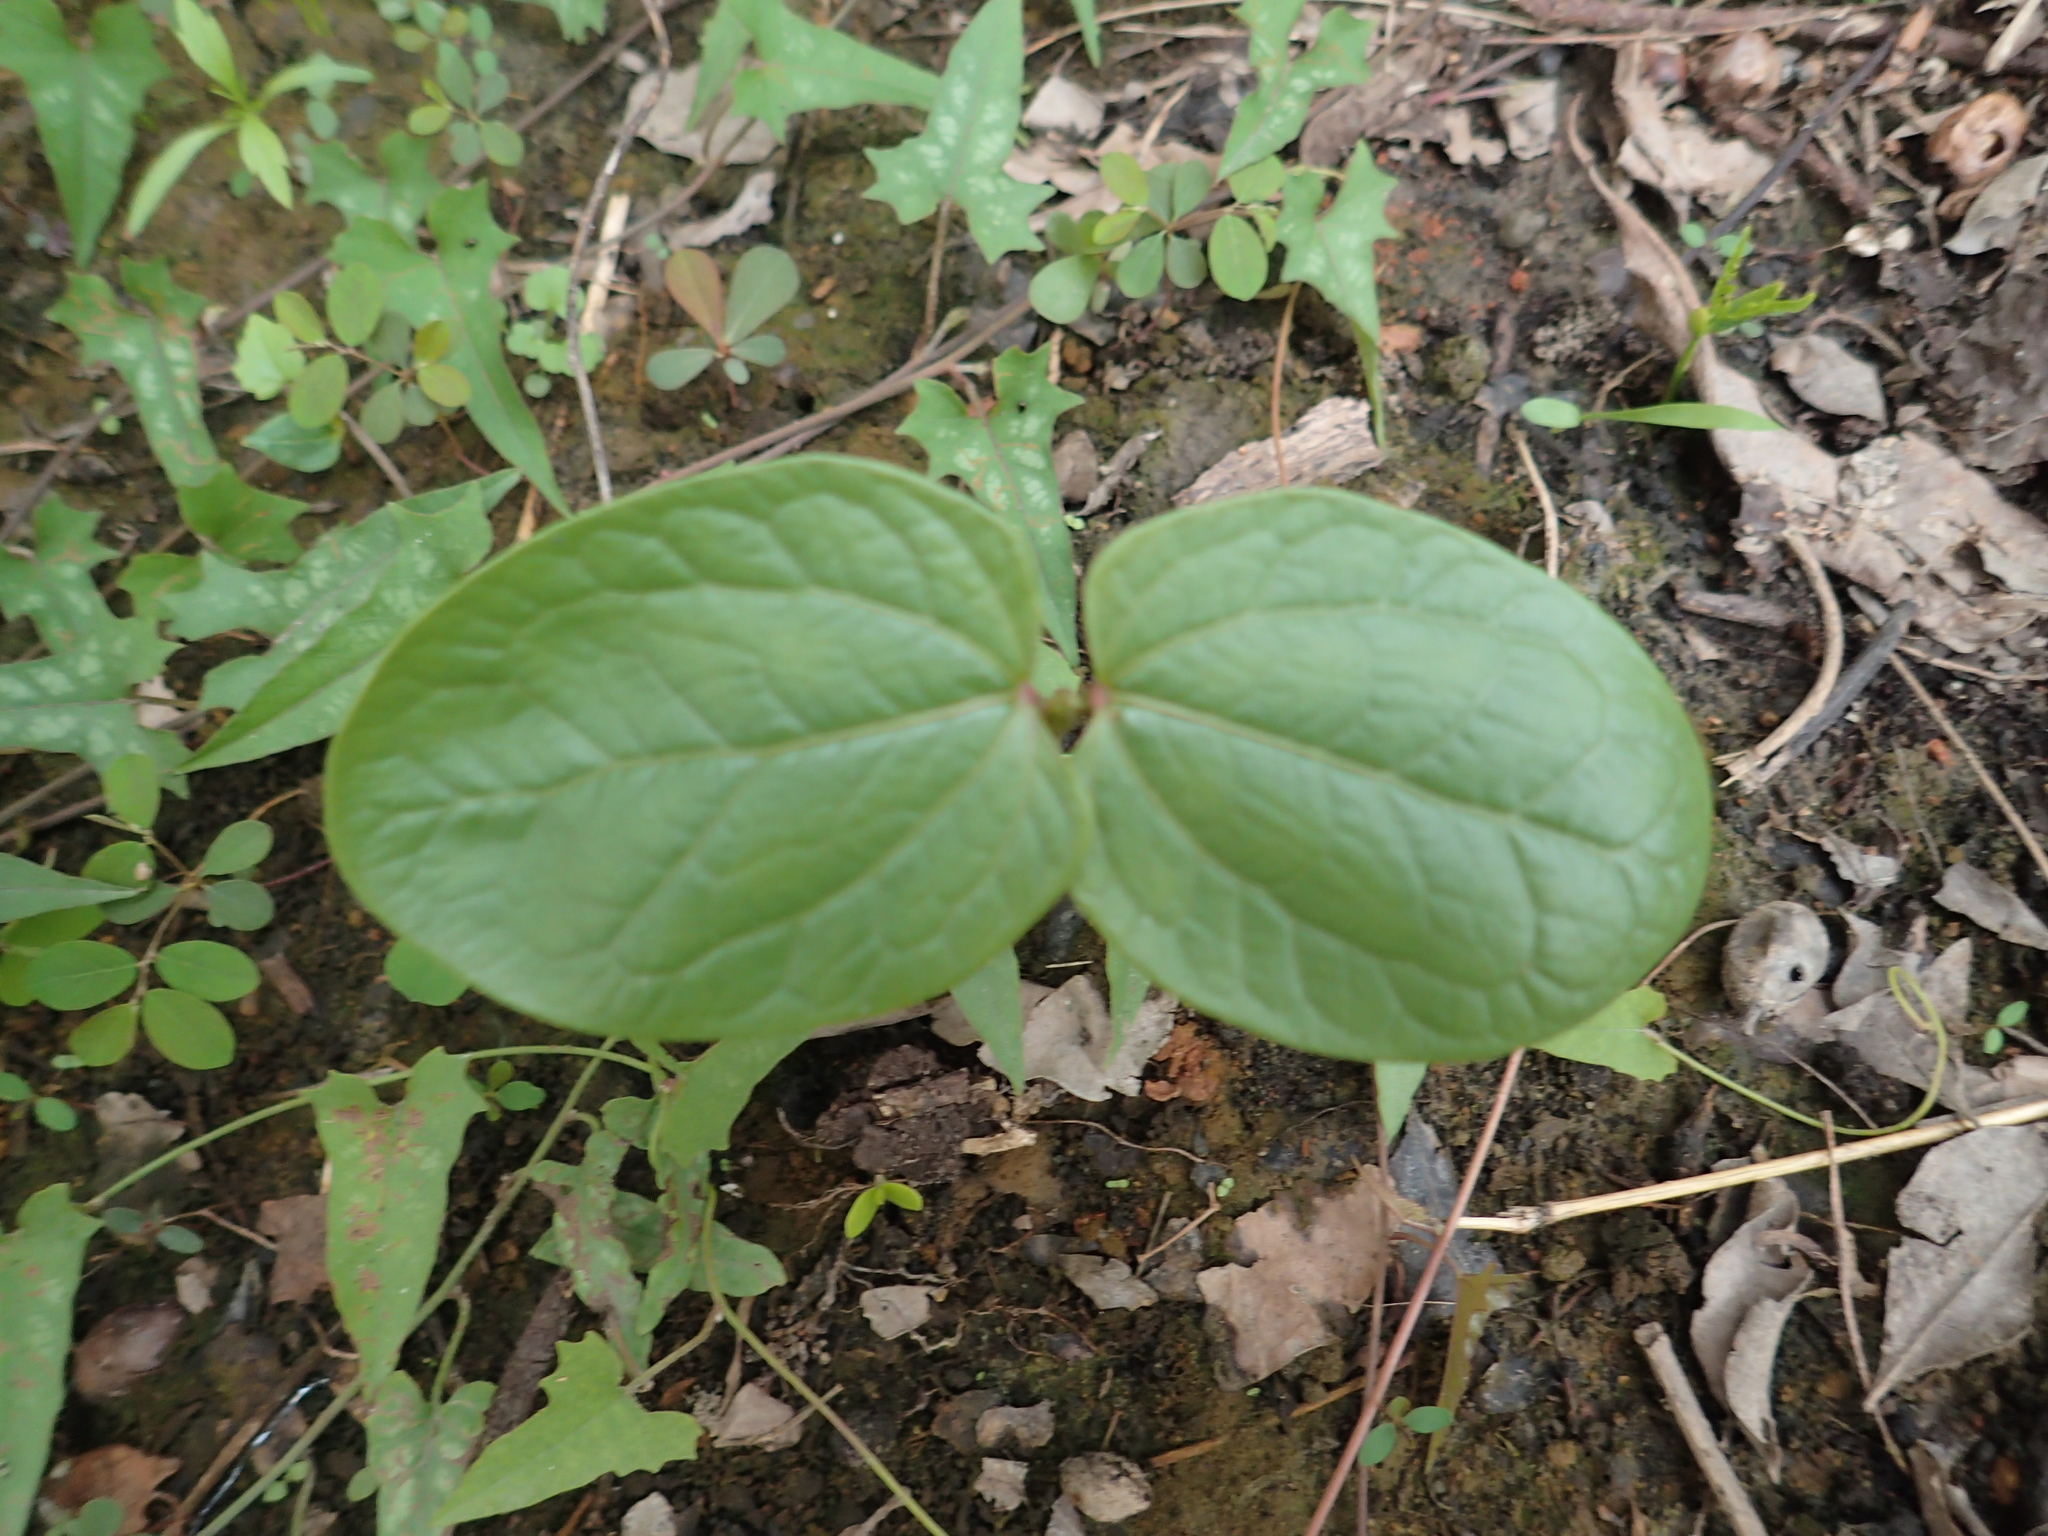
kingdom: Plantae
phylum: Tracheophyta
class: Magnoliopsida
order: Malpighiales
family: Euphorbiaceae
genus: Ricinus
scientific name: Ricinus communis
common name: Castor-oil-plant
